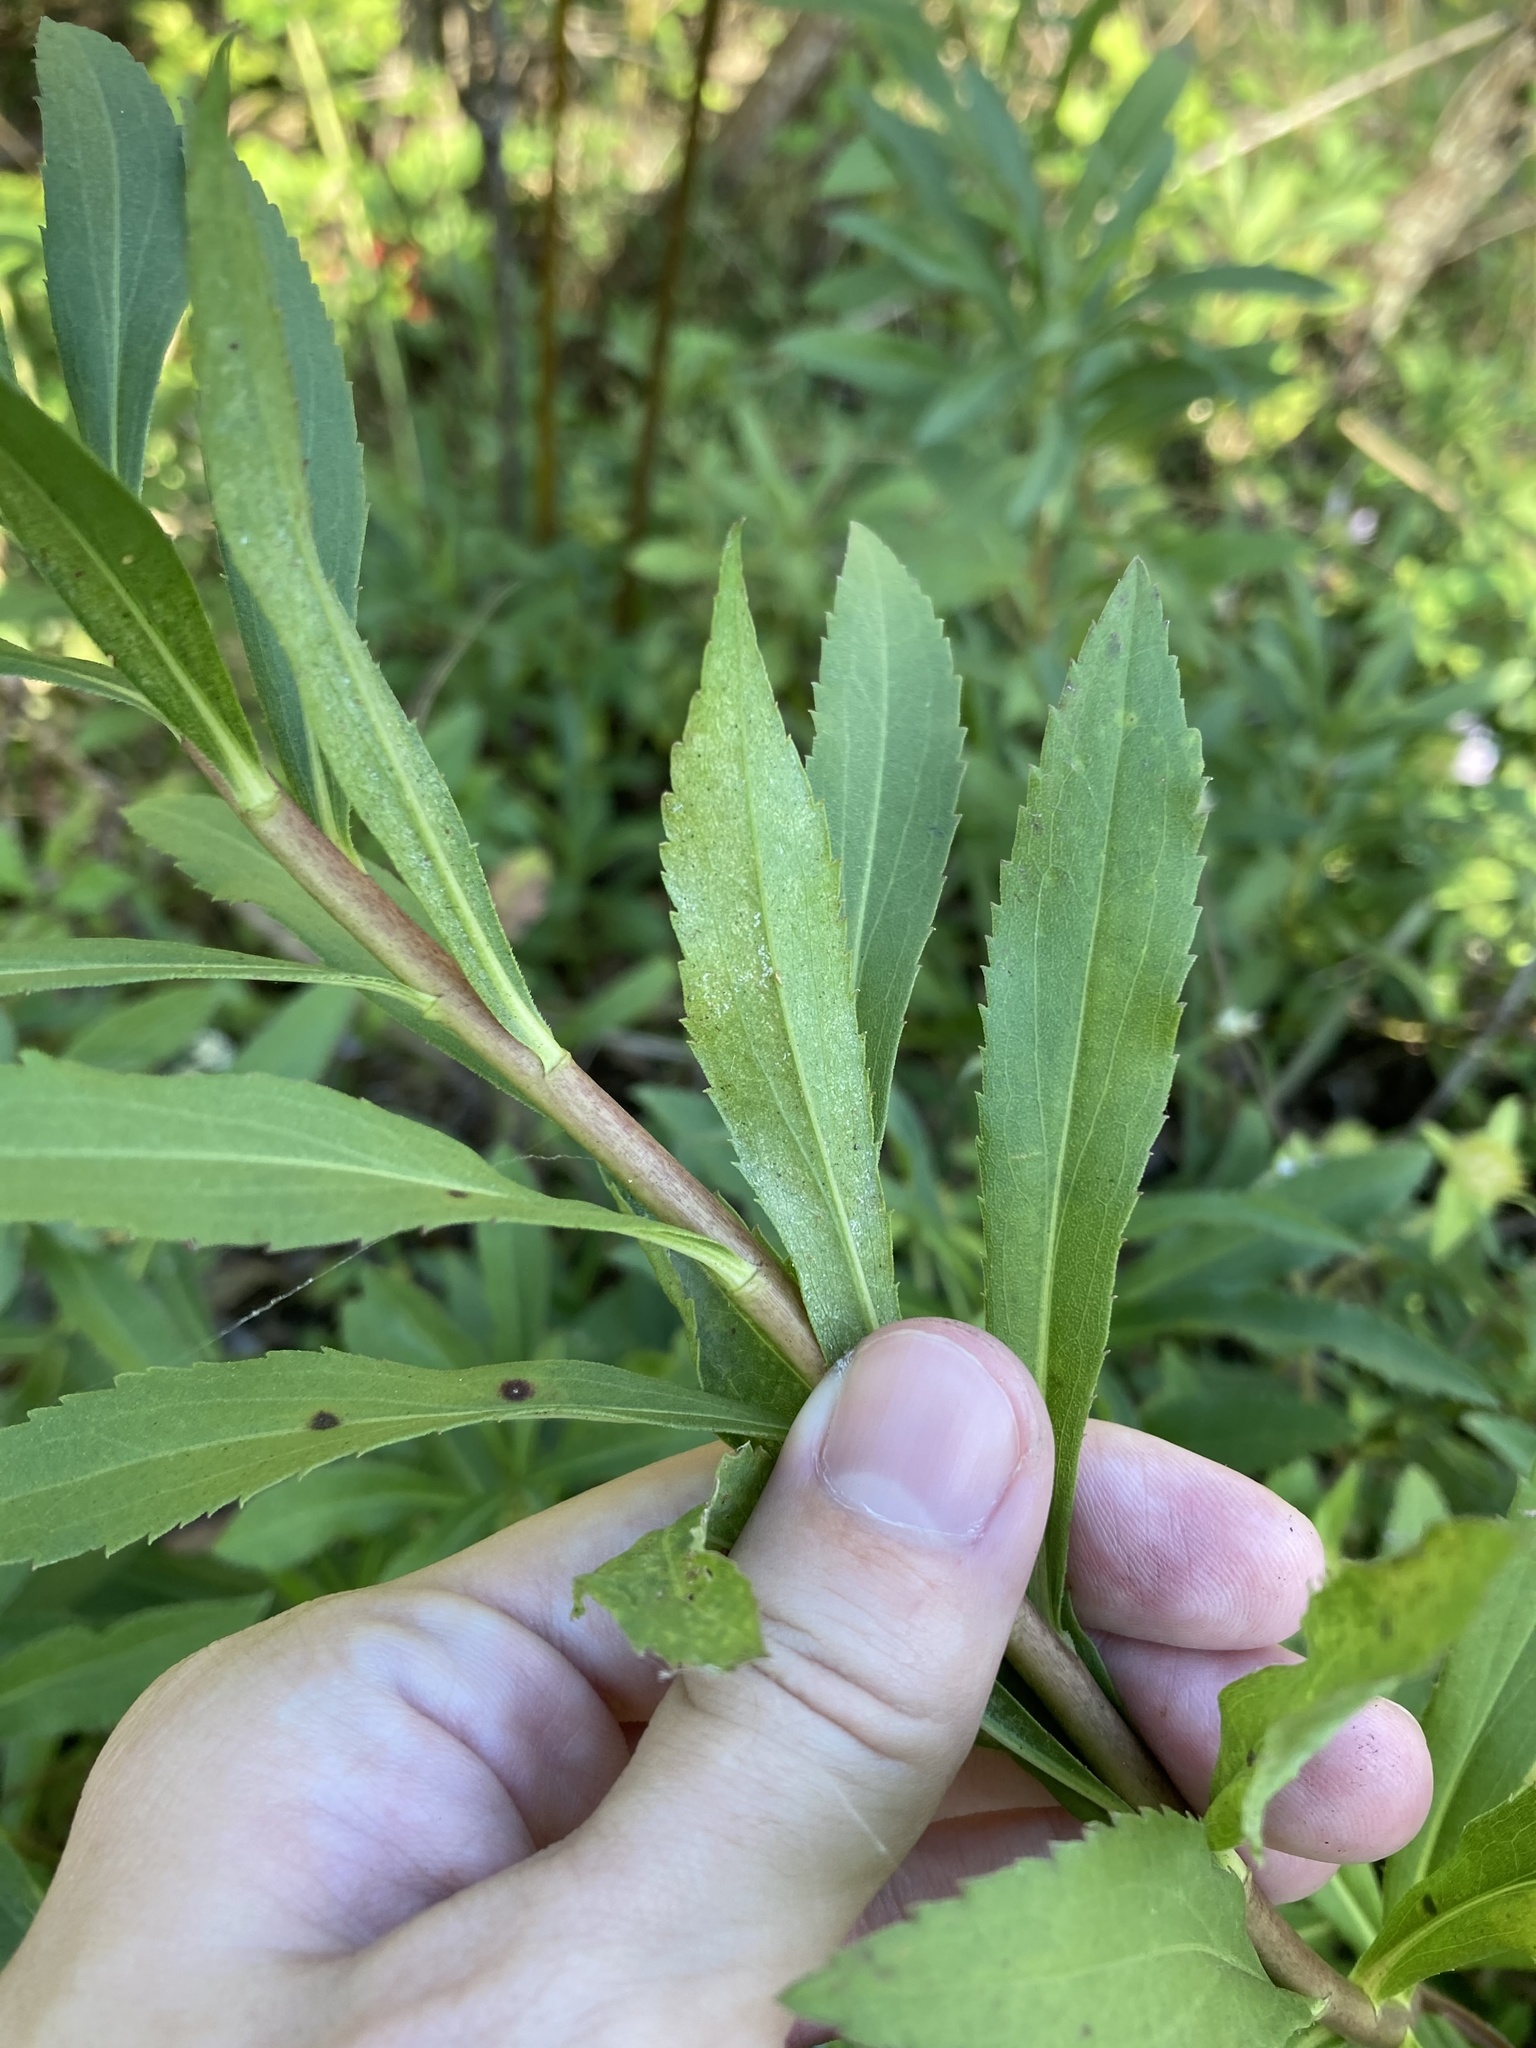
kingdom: Plantae
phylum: Tracheophyta
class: Magnoliopsida
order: Asterales
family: Asteraceae
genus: Solidago
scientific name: Solidago leavenworthii
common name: Leavenworth's goldenrod
